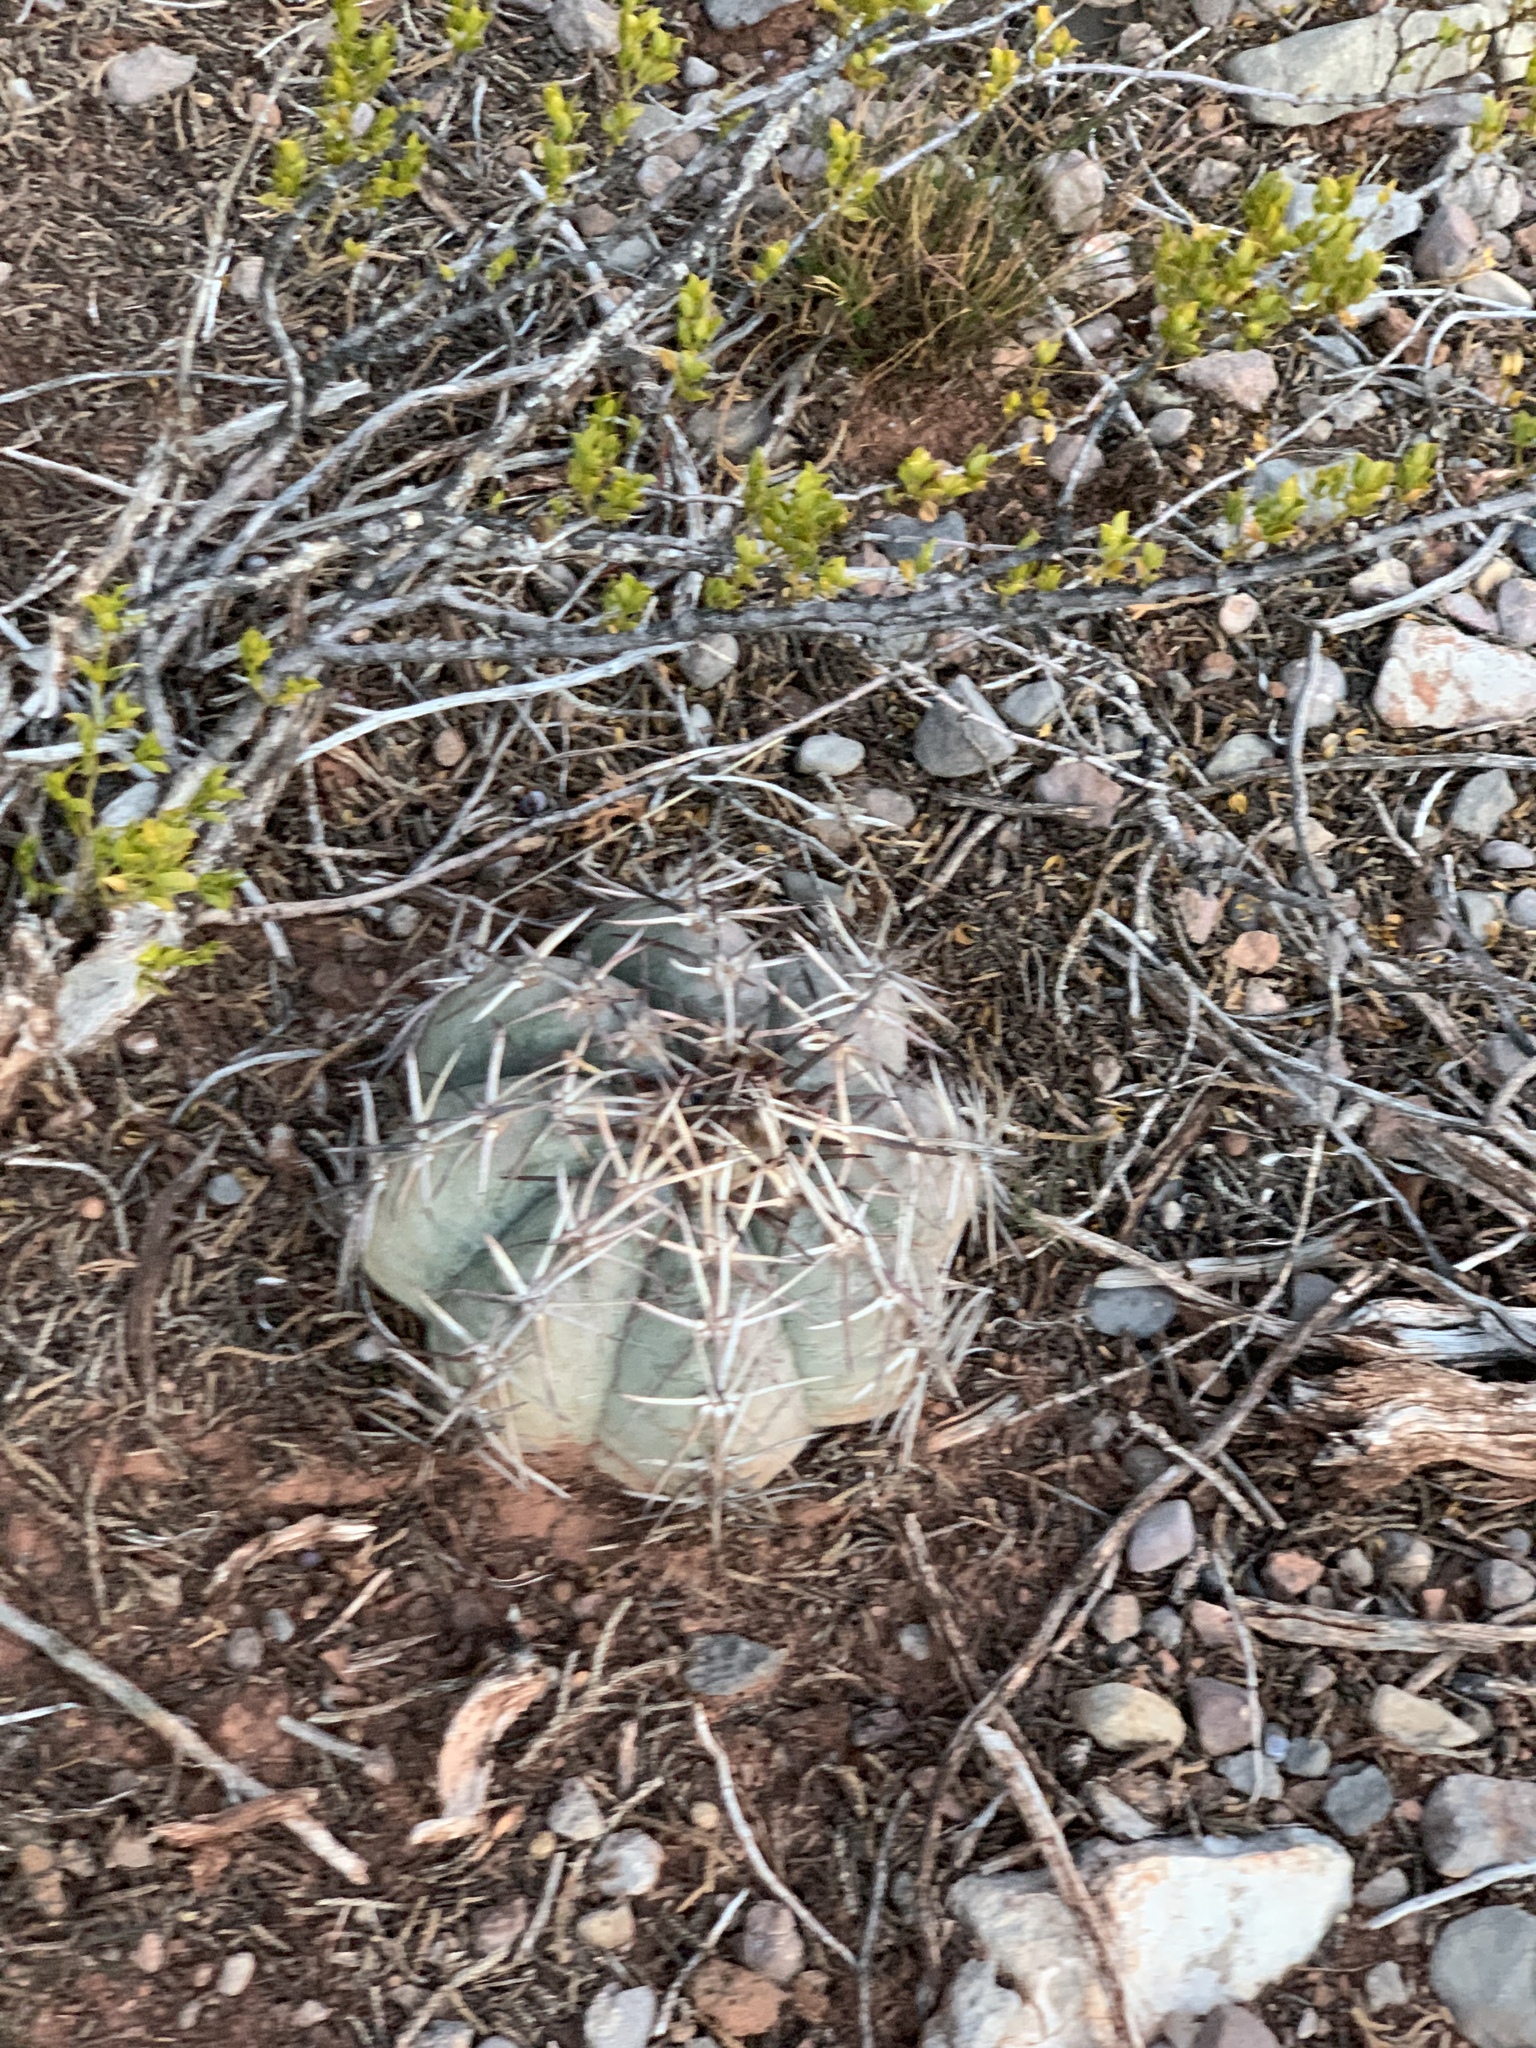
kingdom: Plantae
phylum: Tracheophyta
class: Magnoliopsida
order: Caryophyllales
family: Cactaceae
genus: Echinocactus
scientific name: Echinocactus horizonthalonius
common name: Devilshead
